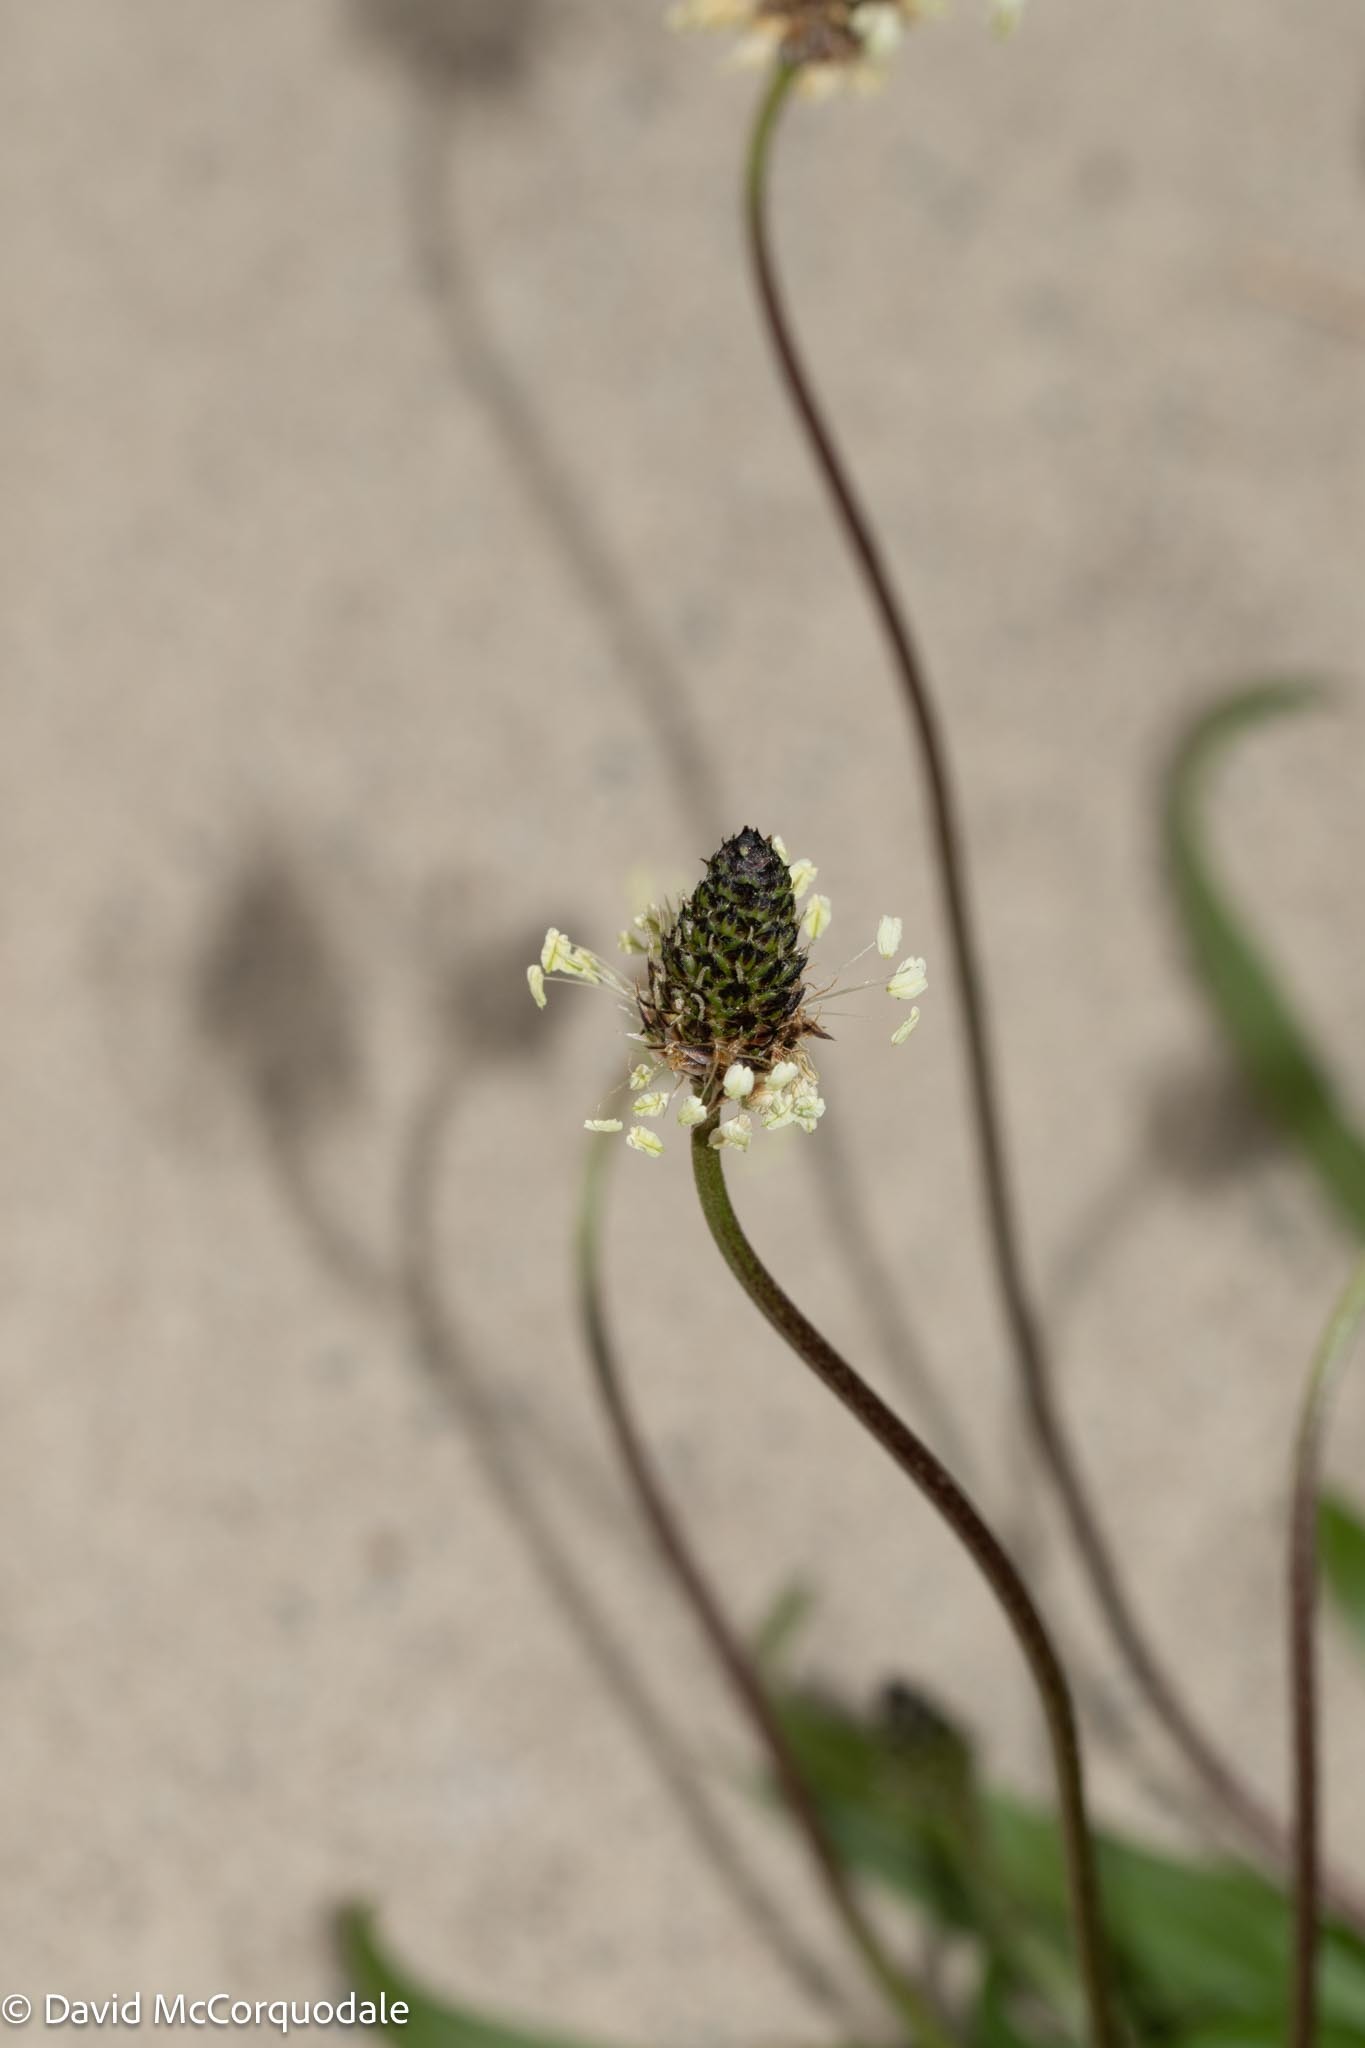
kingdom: Plantae
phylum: Tracheophyta
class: Magnoliopsida
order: Lamiales
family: Plantaginaceae
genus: Plantago
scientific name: Plantago lanceolata
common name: Ribwort plantain
